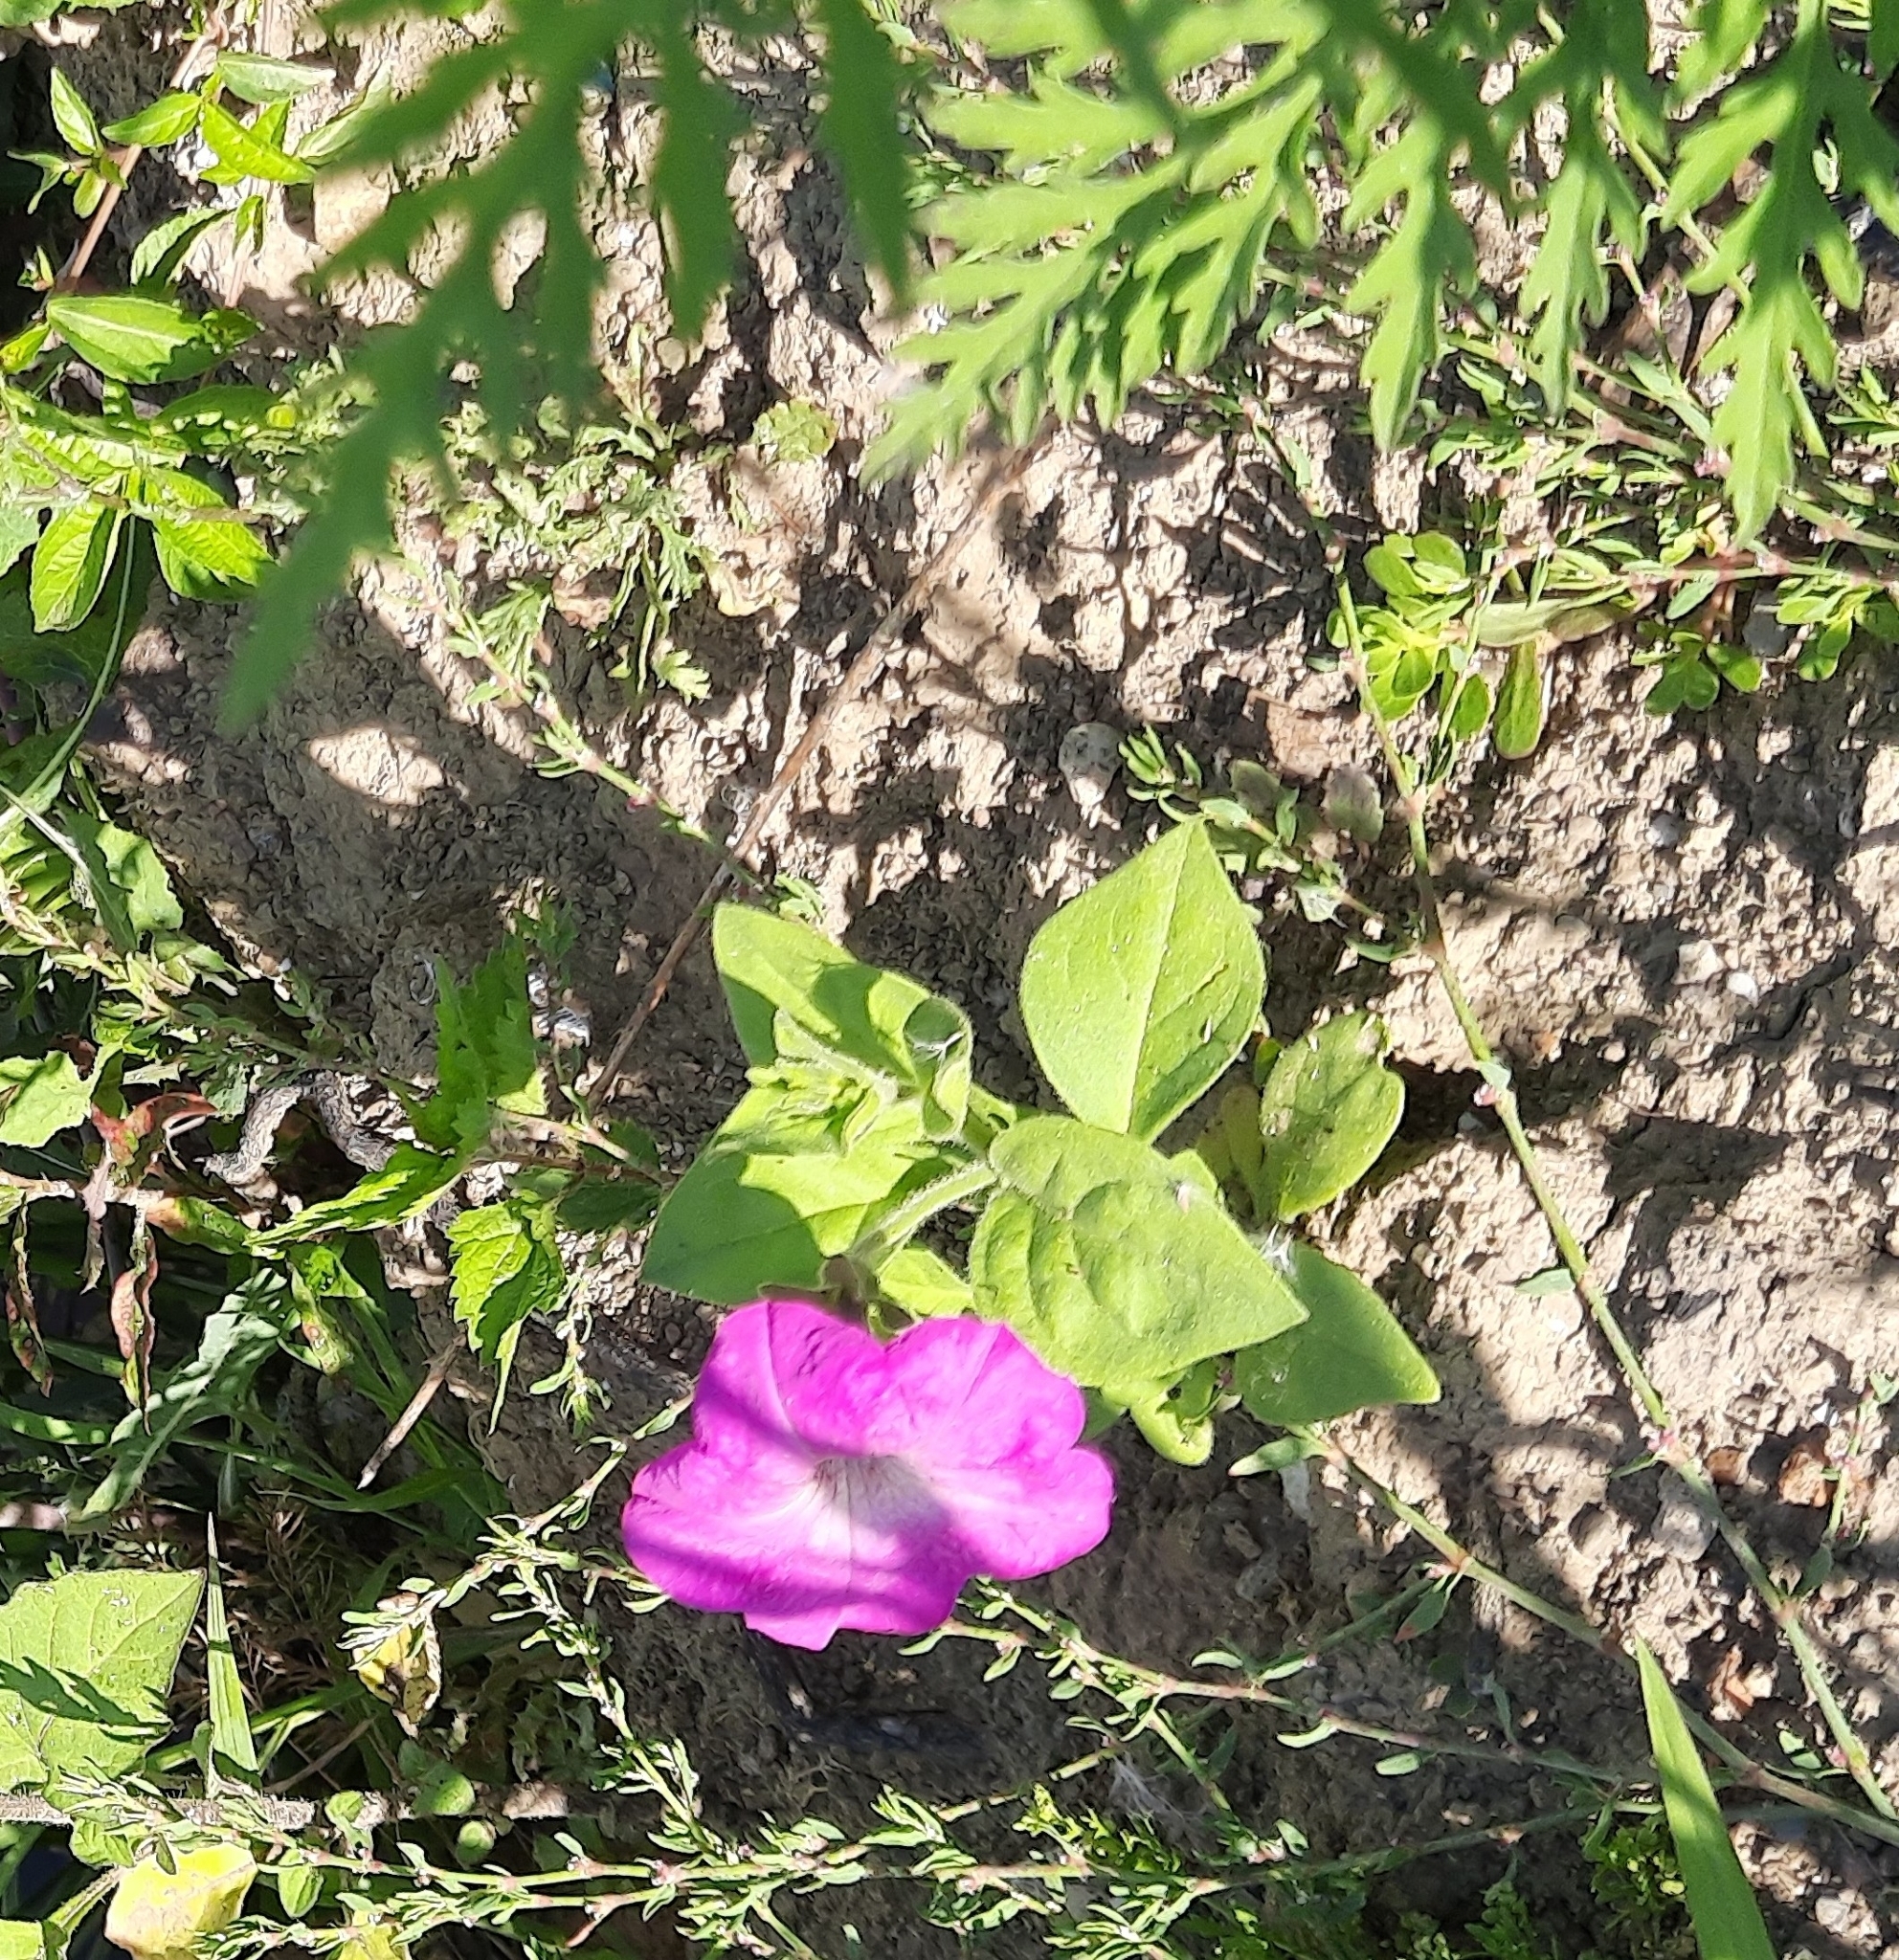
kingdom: Plantae
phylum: Tracheophyta
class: Magnoliopsida
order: Solanales
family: Solanaceae
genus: Petunia
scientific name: Petunia atkinsiana
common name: Petunia
